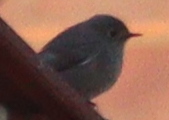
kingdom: Animalia
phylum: Chordata
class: Aves
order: Passeriformes
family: Muscicapidae
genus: Phoenicurus
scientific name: Phoenicurus ochruros
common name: Black redstart
